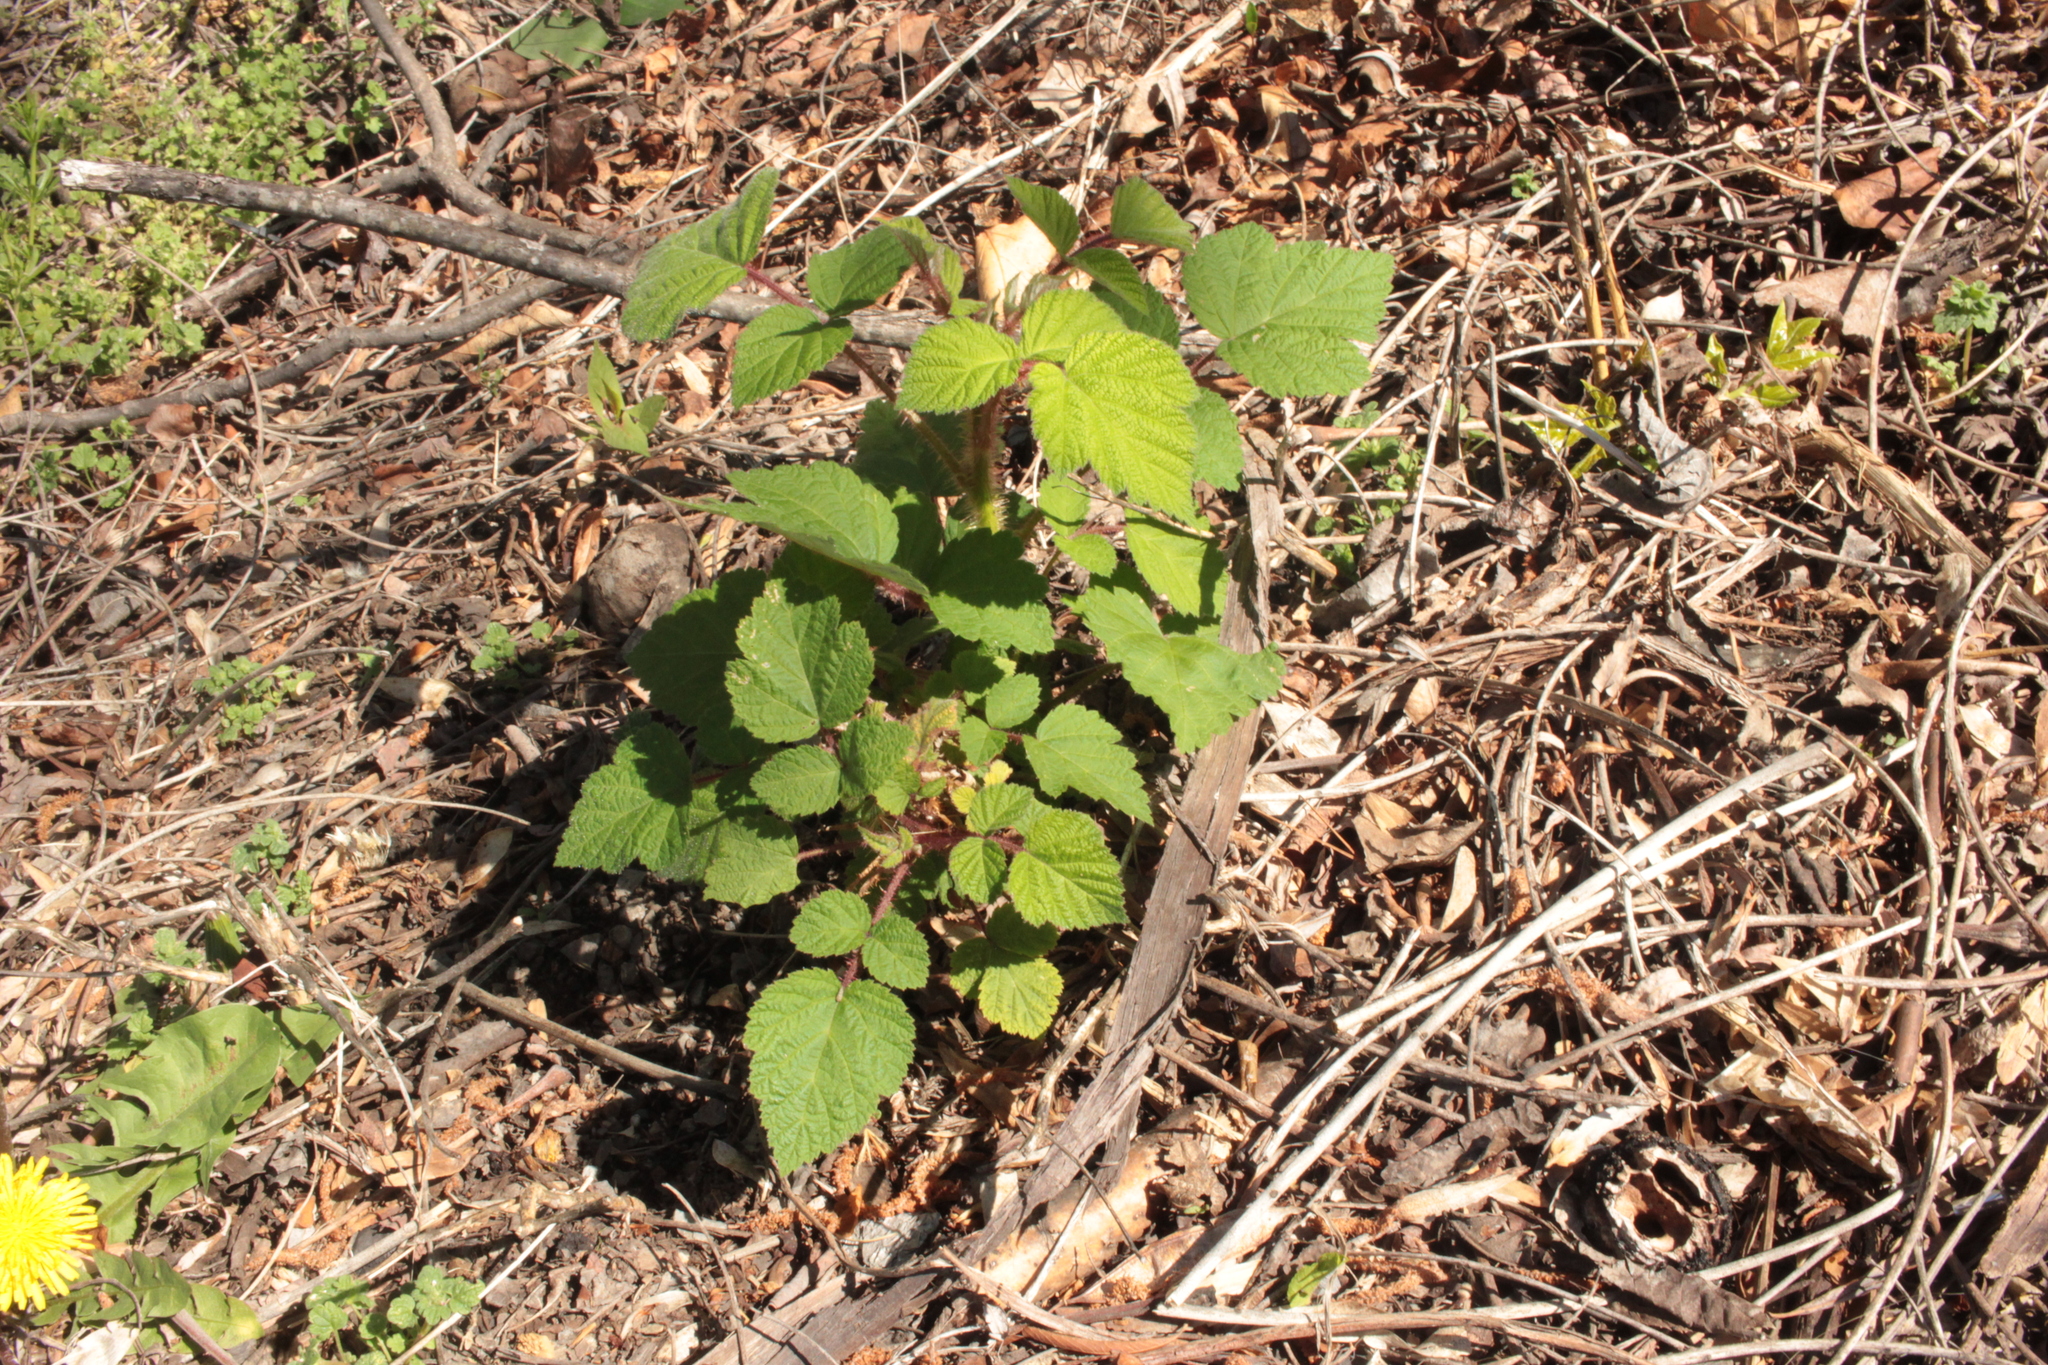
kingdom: Plantae
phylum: Tracheophyta
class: Magnoliopsida
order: Rosales
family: Rosaceae
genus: Rubus
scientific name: Rubus phoenicolasius
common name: Japanese wineberry
